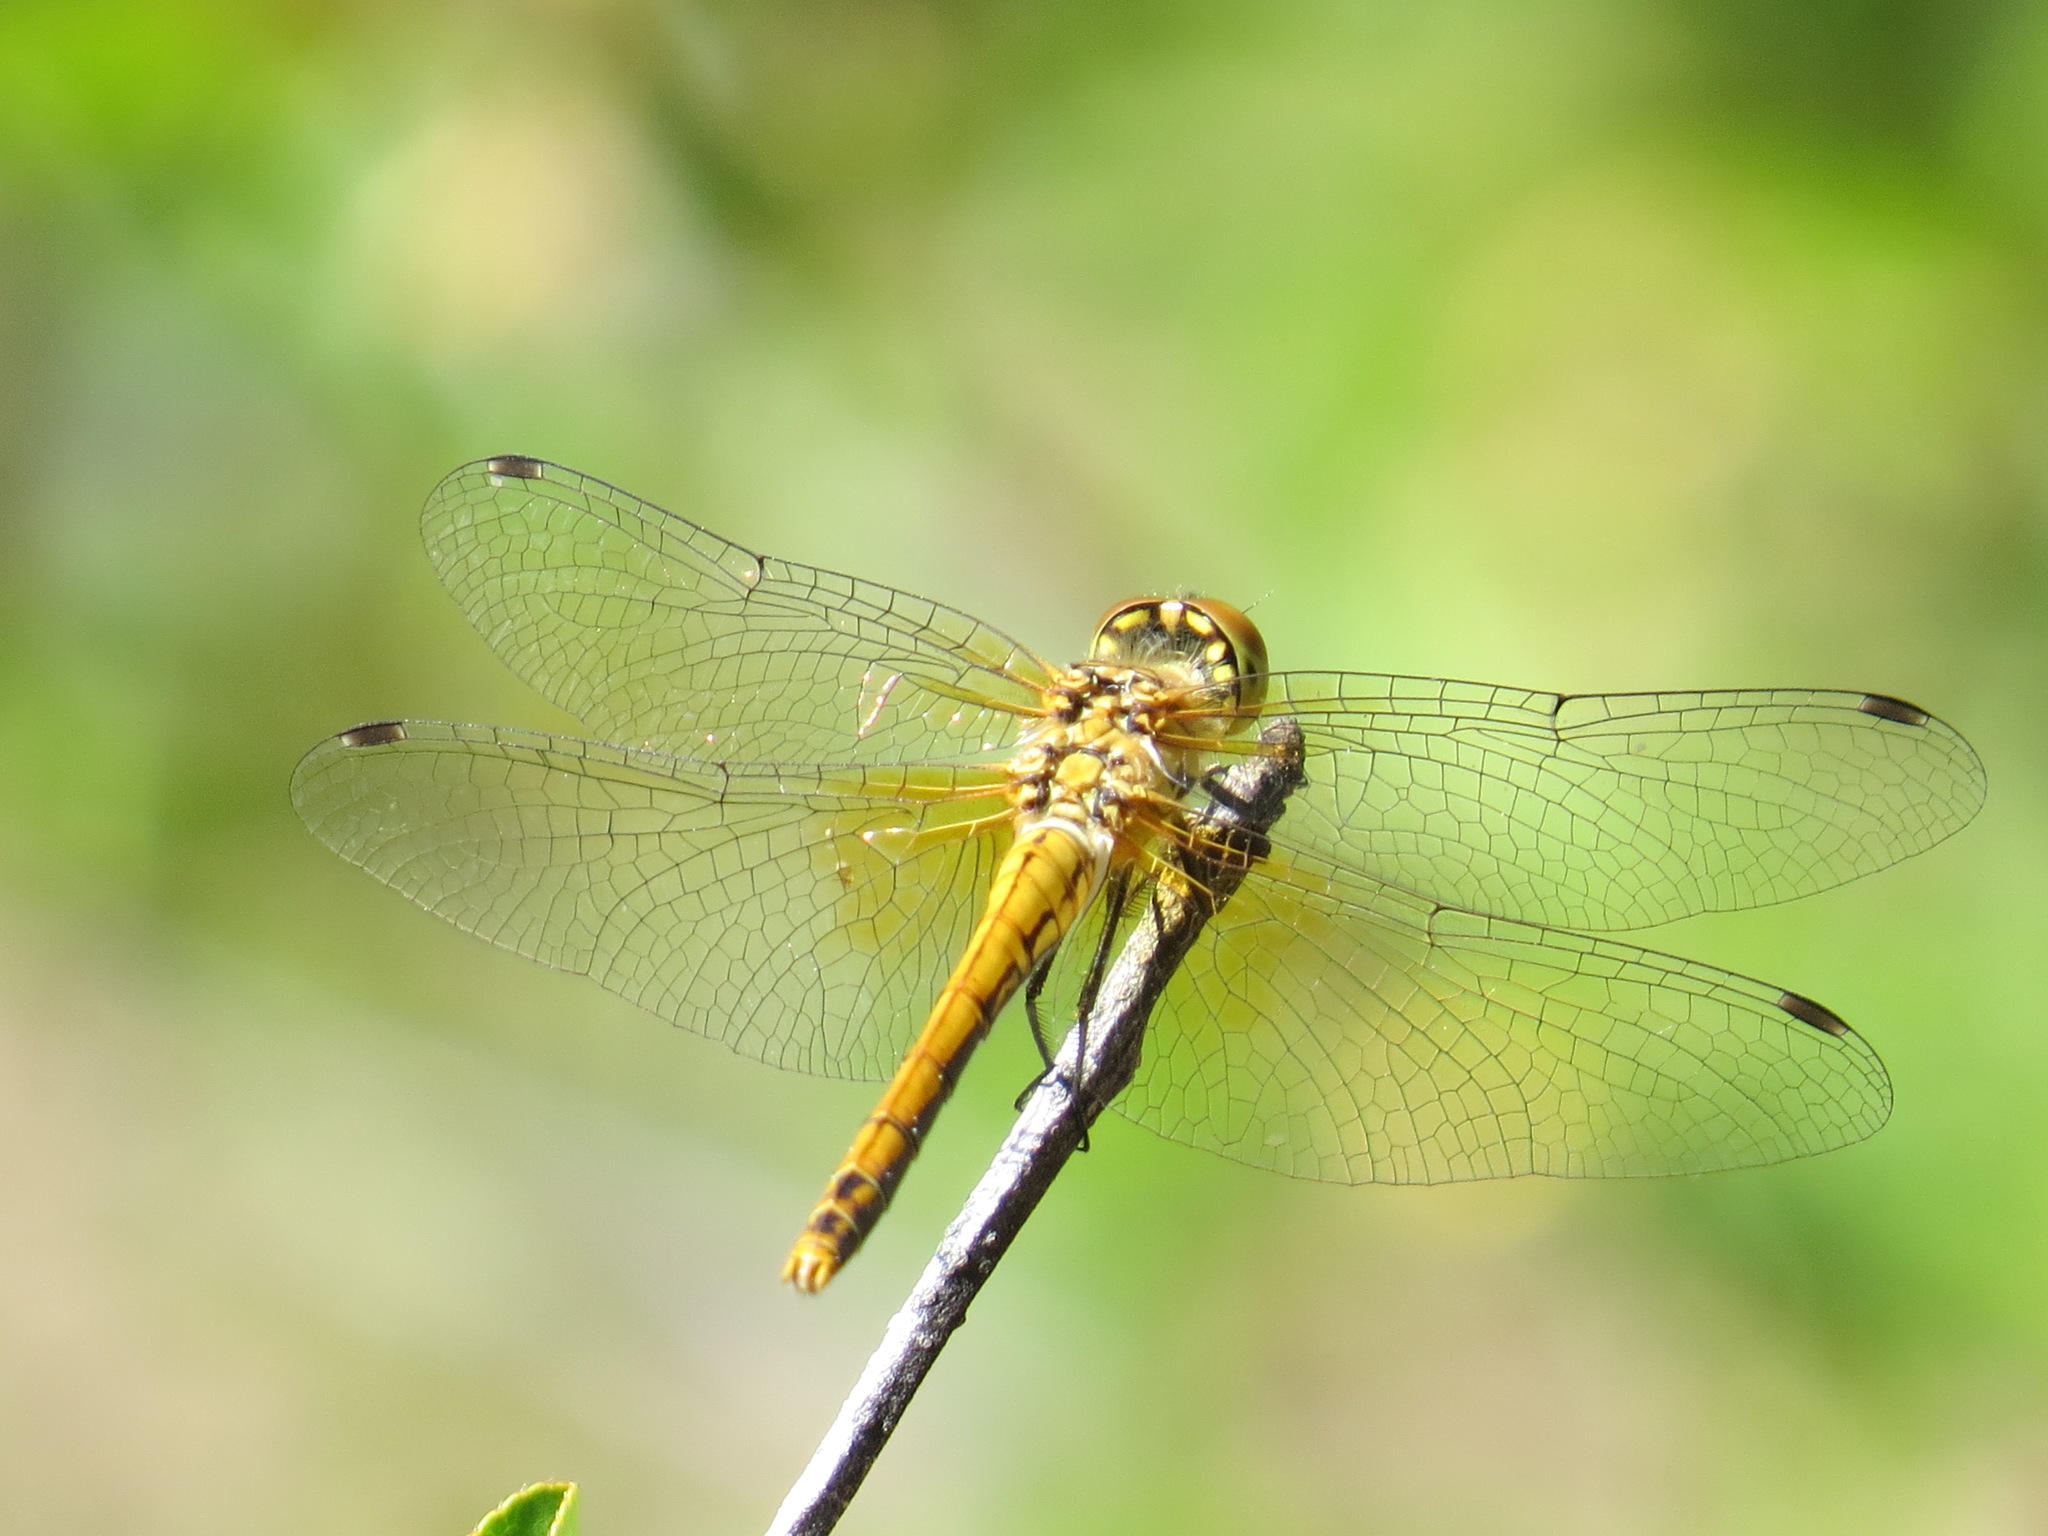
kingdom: Animalia
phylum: Arthropoda
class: Insecta
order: Odonata
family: Libellulidae
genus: Sympetrum
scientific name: Sympetrum semicinctum
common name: Band-winged meadowhawk
